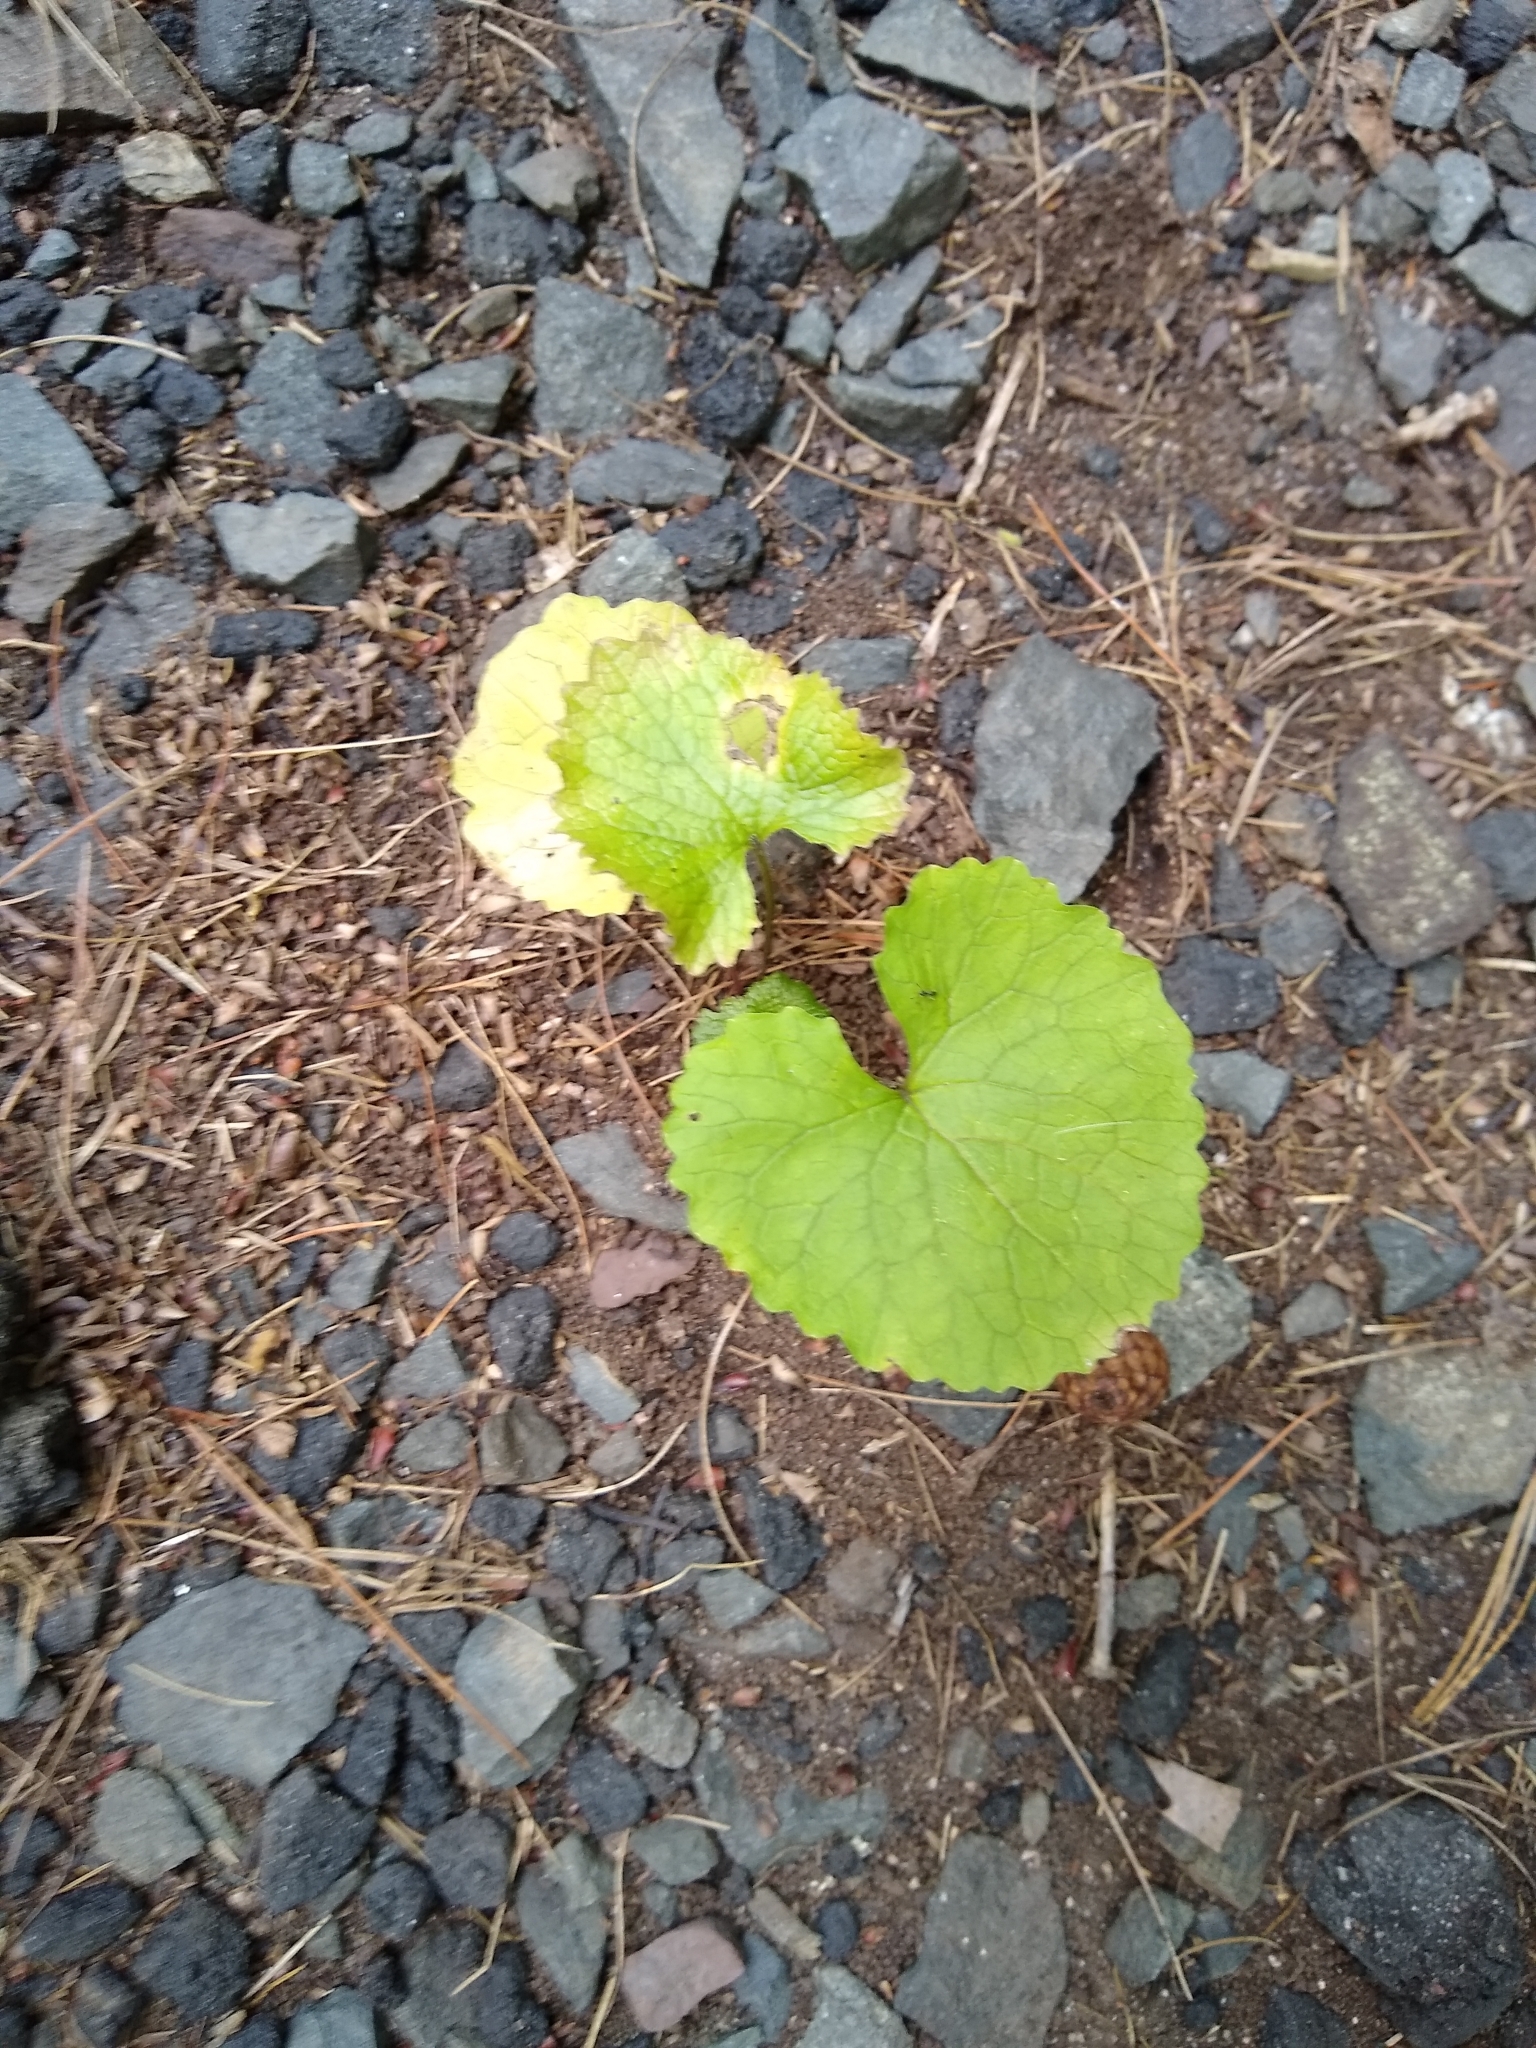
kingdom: Plantae
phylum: Tracheophyta
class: Magnoliopsida
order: Brassicales
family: Brassicaceae
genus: Alliaria
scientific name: Alliaria petiolata
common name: Garlic mustard
